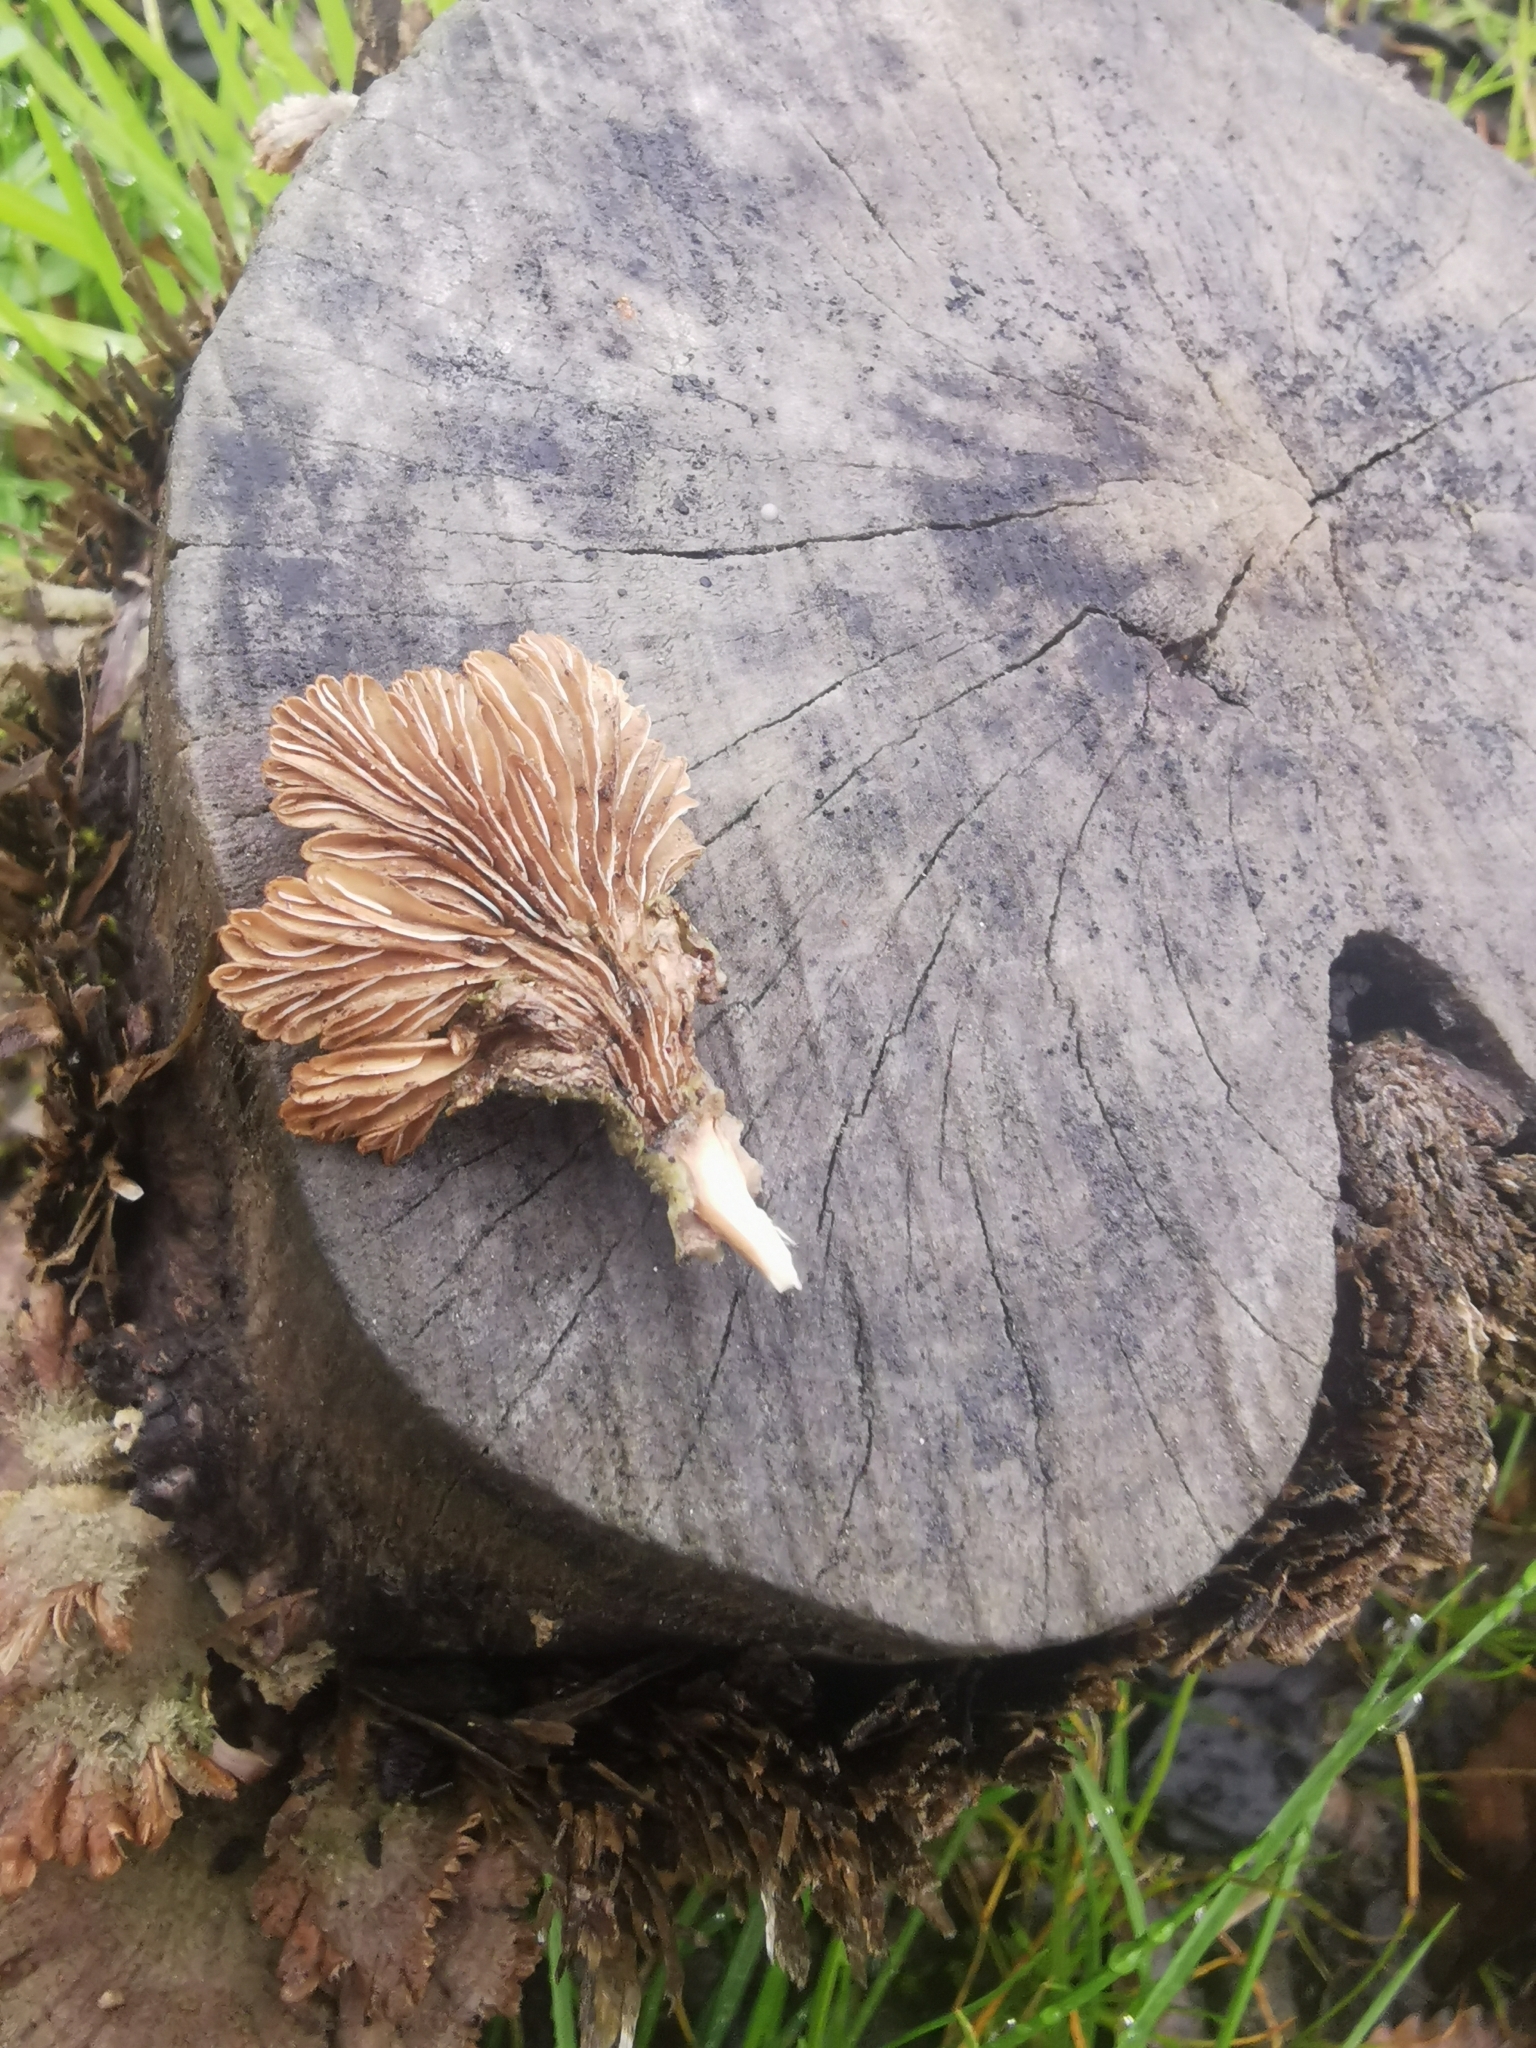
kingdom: Fungi
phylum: Basidiomycota
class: Agaricomycetes
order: Agaricales
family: Schizophyllaceae
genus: Schizophyllum
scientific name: Schizophyllum commune
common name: Common porecrust
